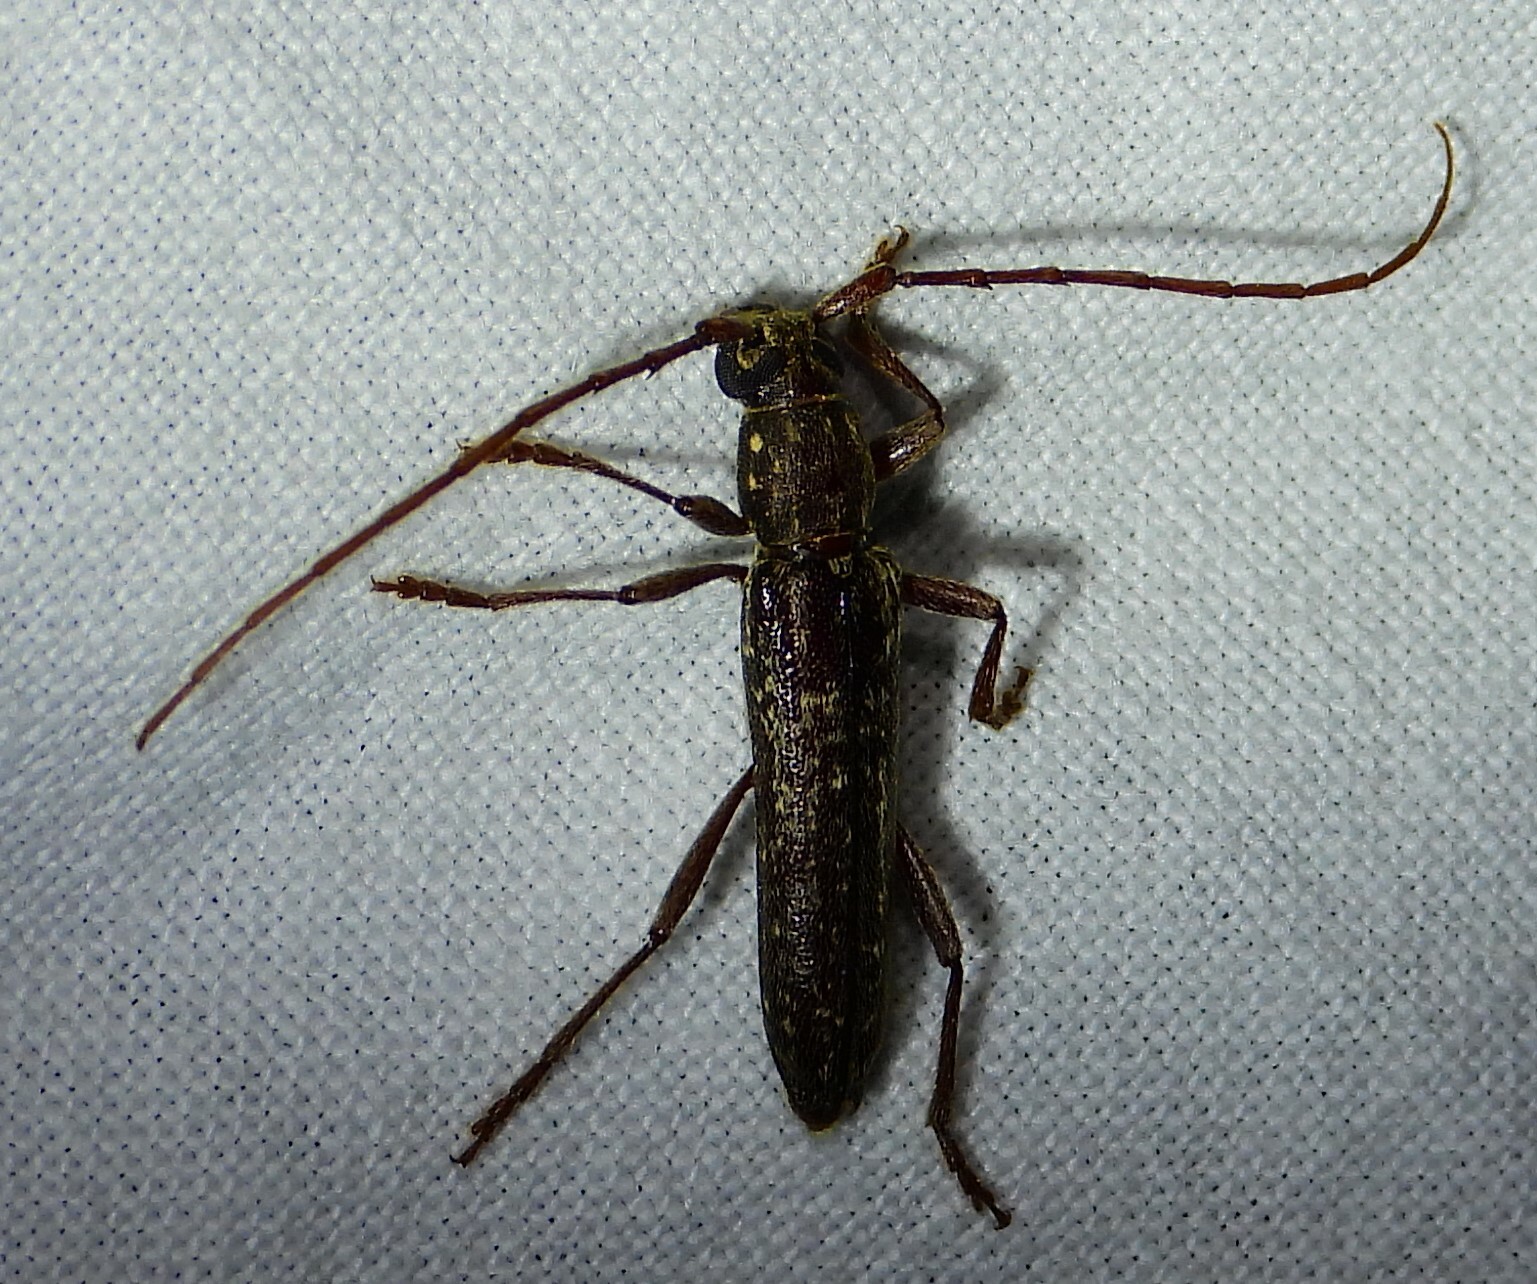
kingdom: Animalia
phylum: Arthropoda
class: Insecta
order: Coleoptera
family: Cerambycidae
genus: Anelaphus
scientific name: Anelaphus villosus
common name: Twig pruner
